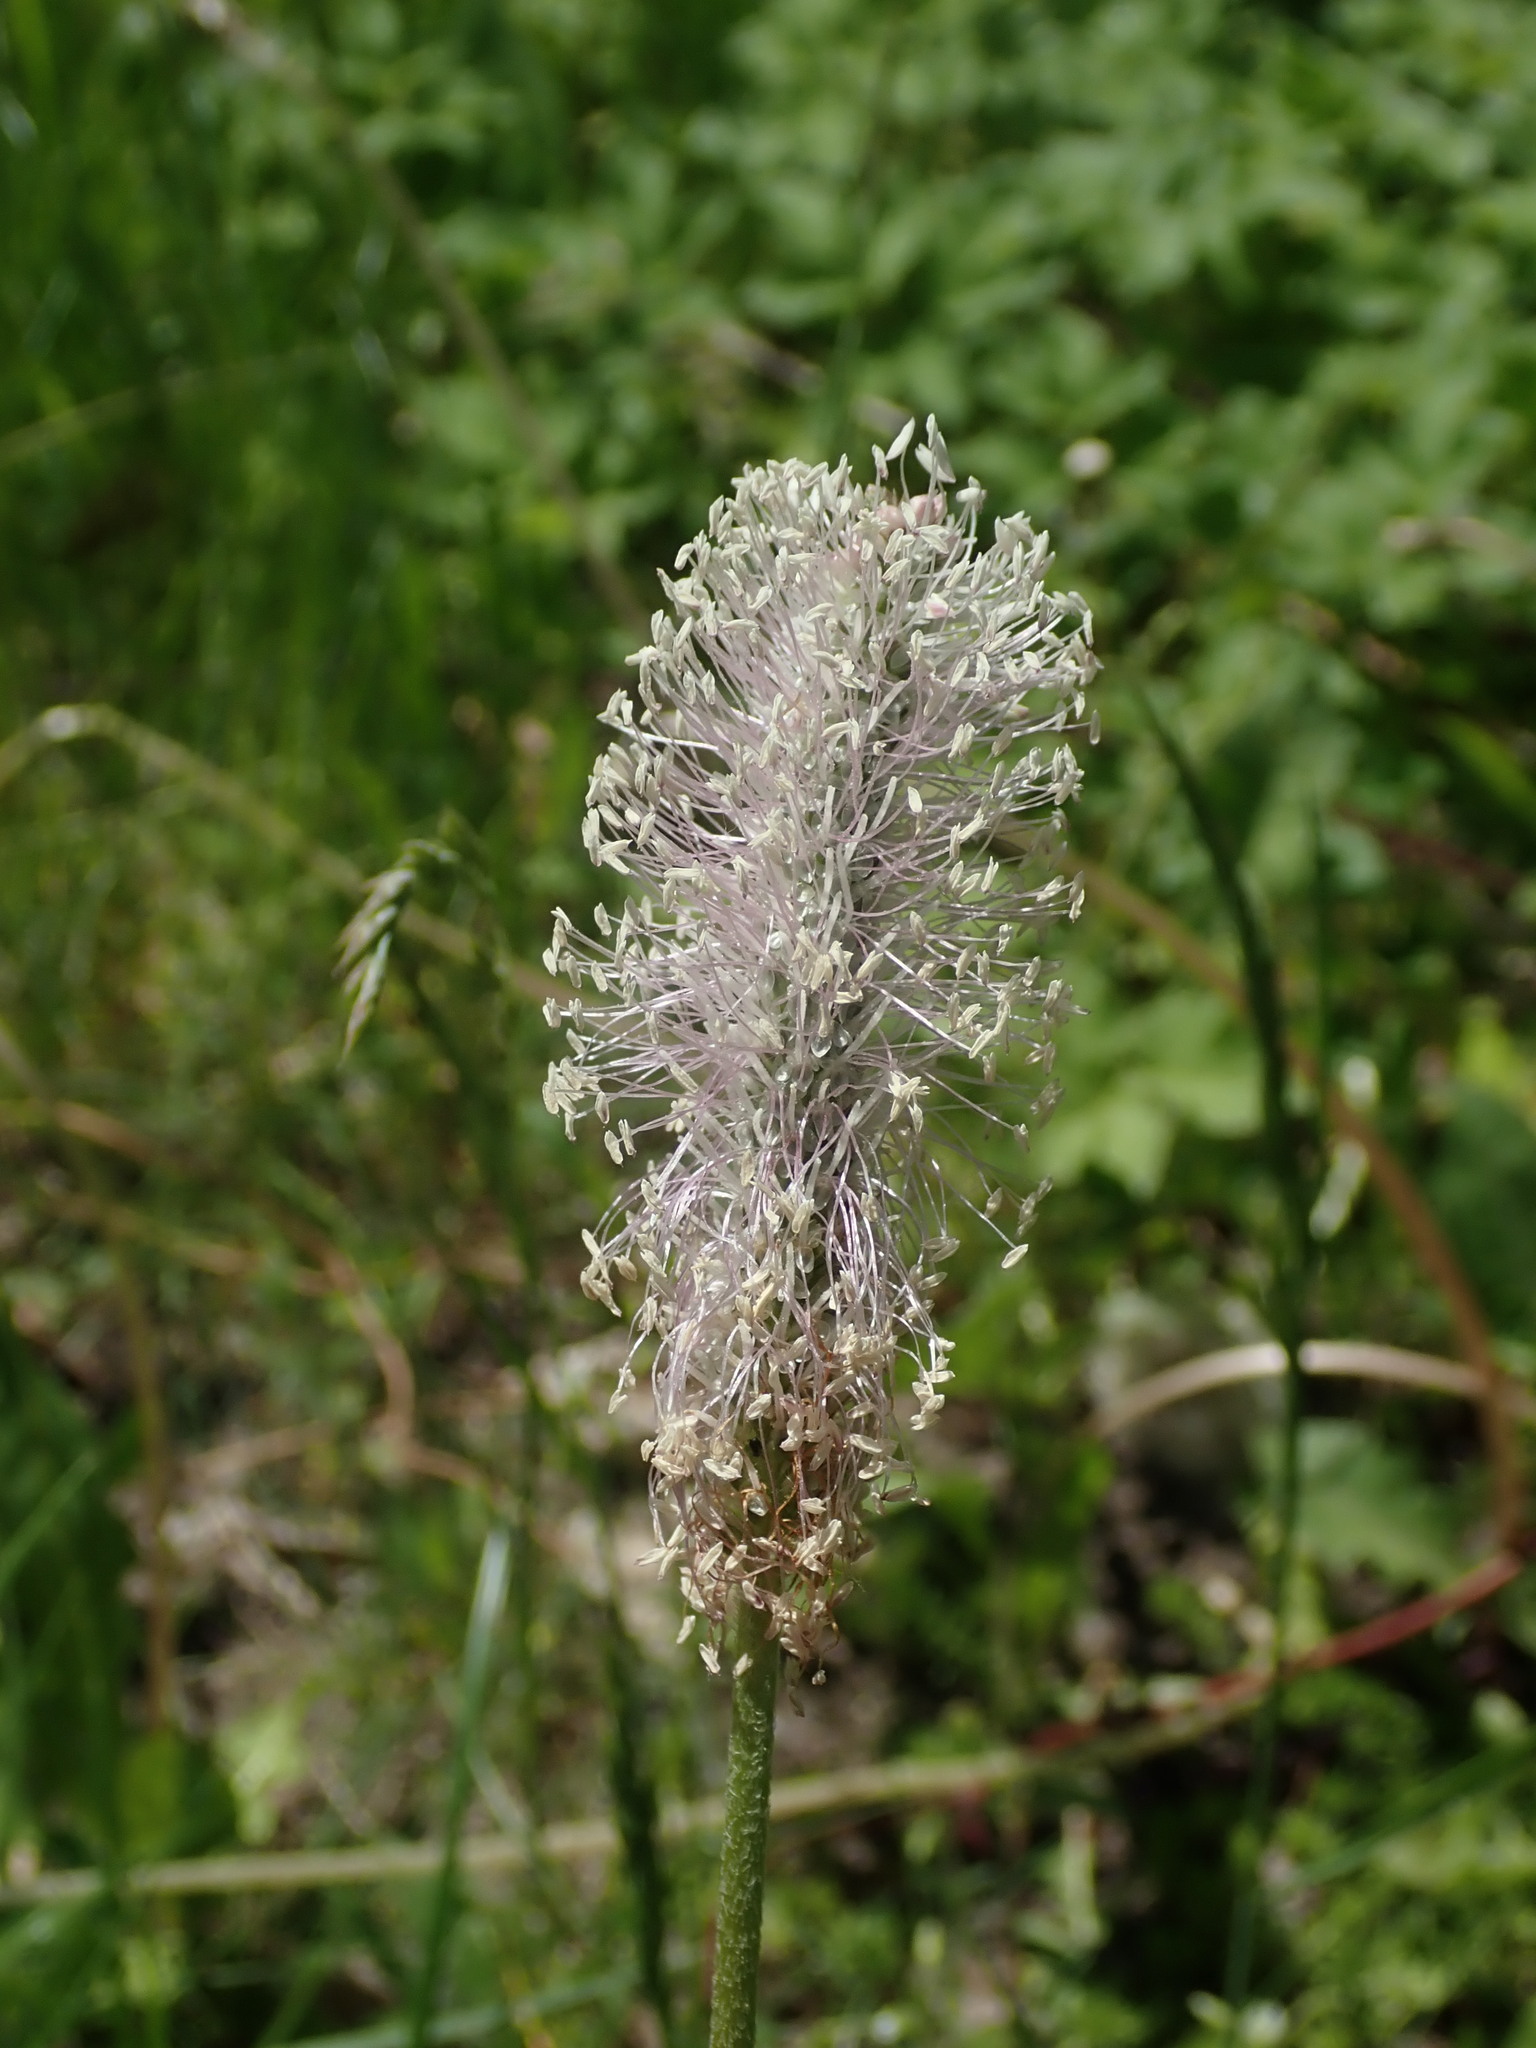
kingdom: Plantae
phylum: Tracheophyta
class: Magnoliopsida
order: Lamiales
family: Plantaginaceae
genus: Plantago
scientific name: Plantago media
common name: Hoary plantain
